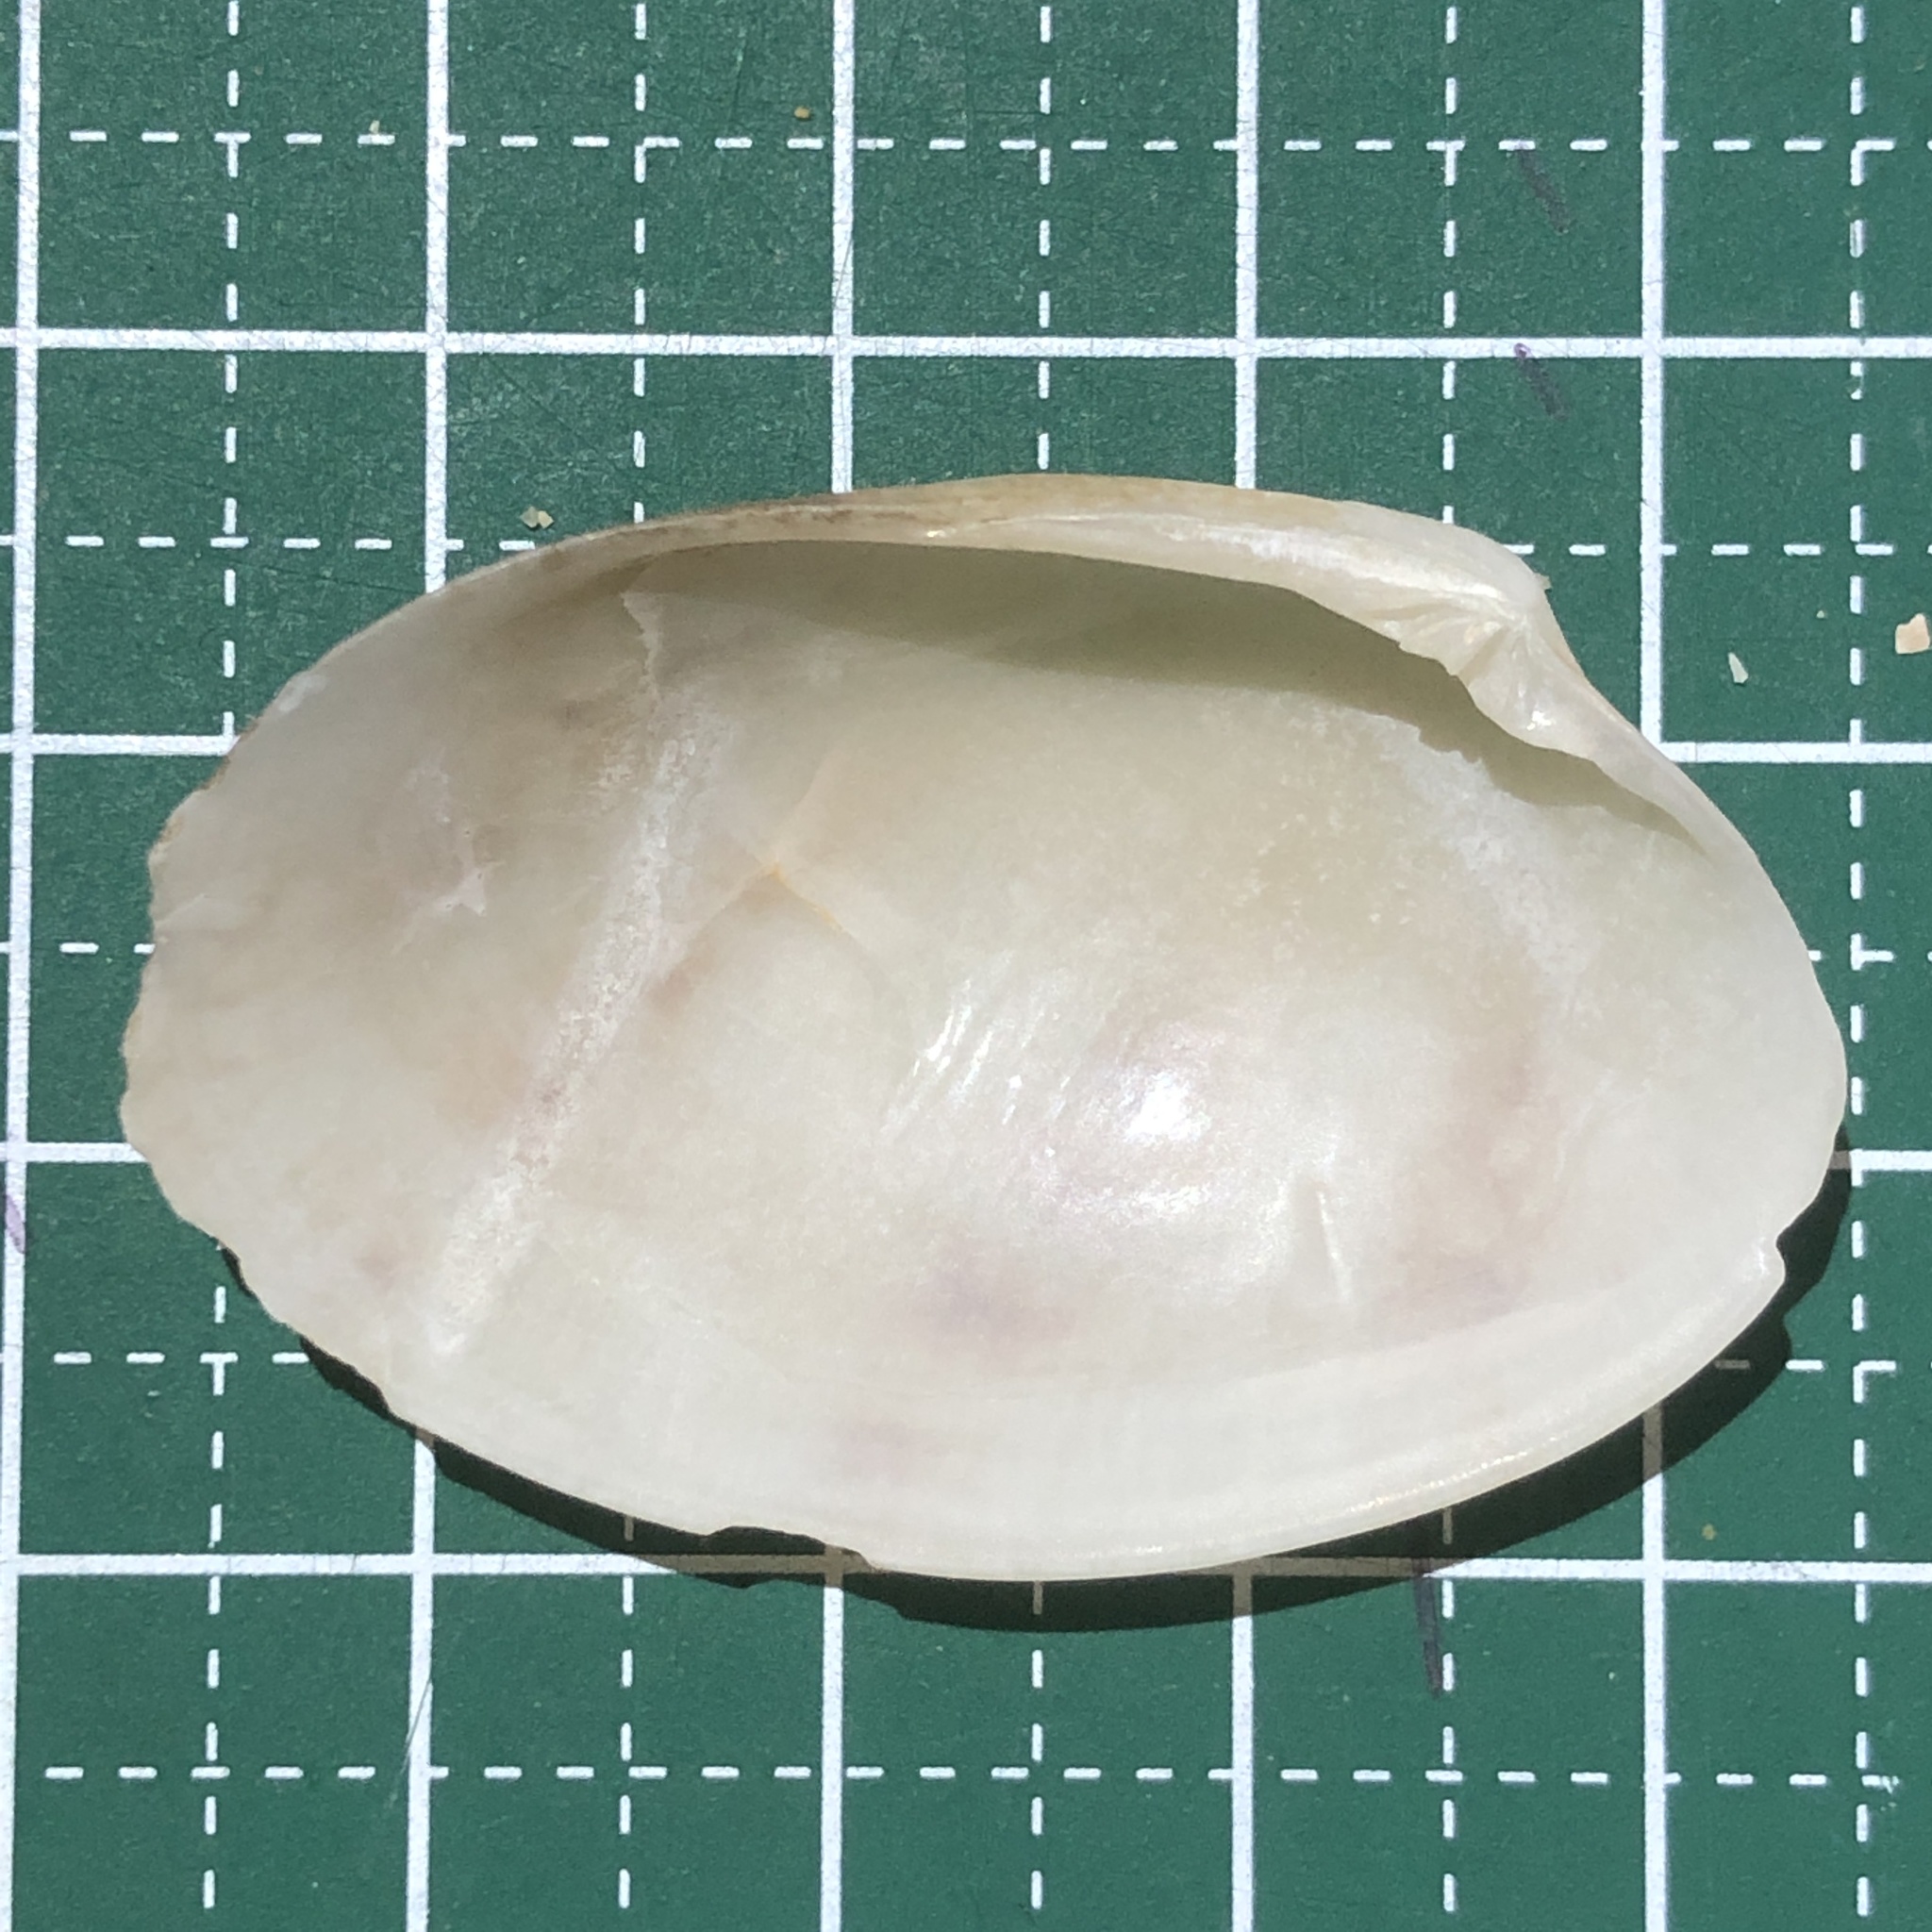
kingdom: Animalia
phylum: Mollusca
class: Bivalvia
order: Venerida
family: Veneridae
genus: Tapes
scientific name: Tapes belcheri
